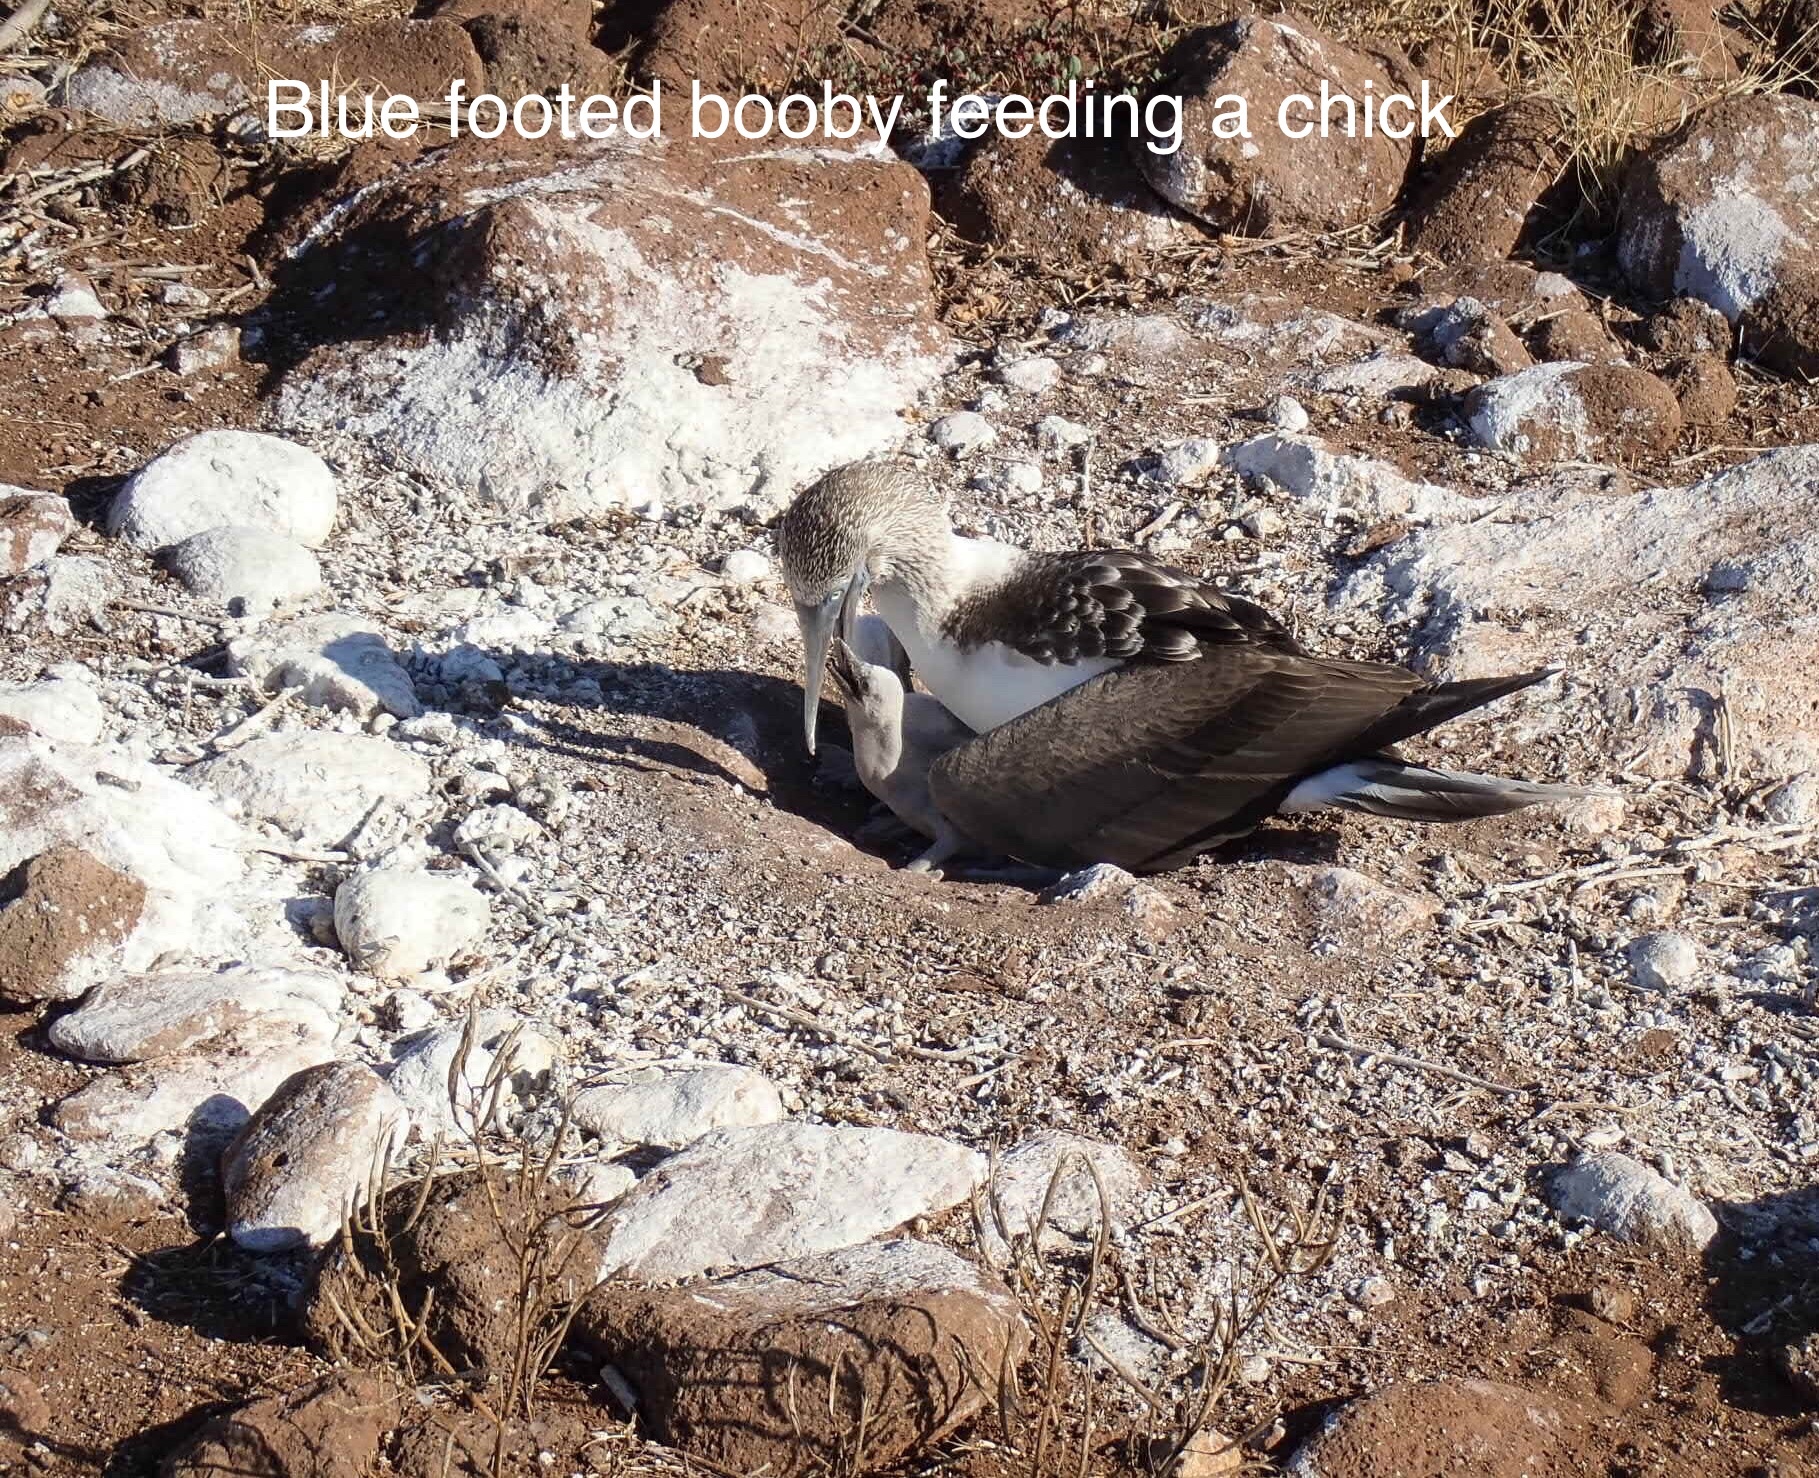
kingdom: Animalia
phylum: Chordata
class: Aves
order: Suliformes
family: Sulidae
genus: Sula
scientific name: Sula nebouxii
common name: Blue-footed booby
